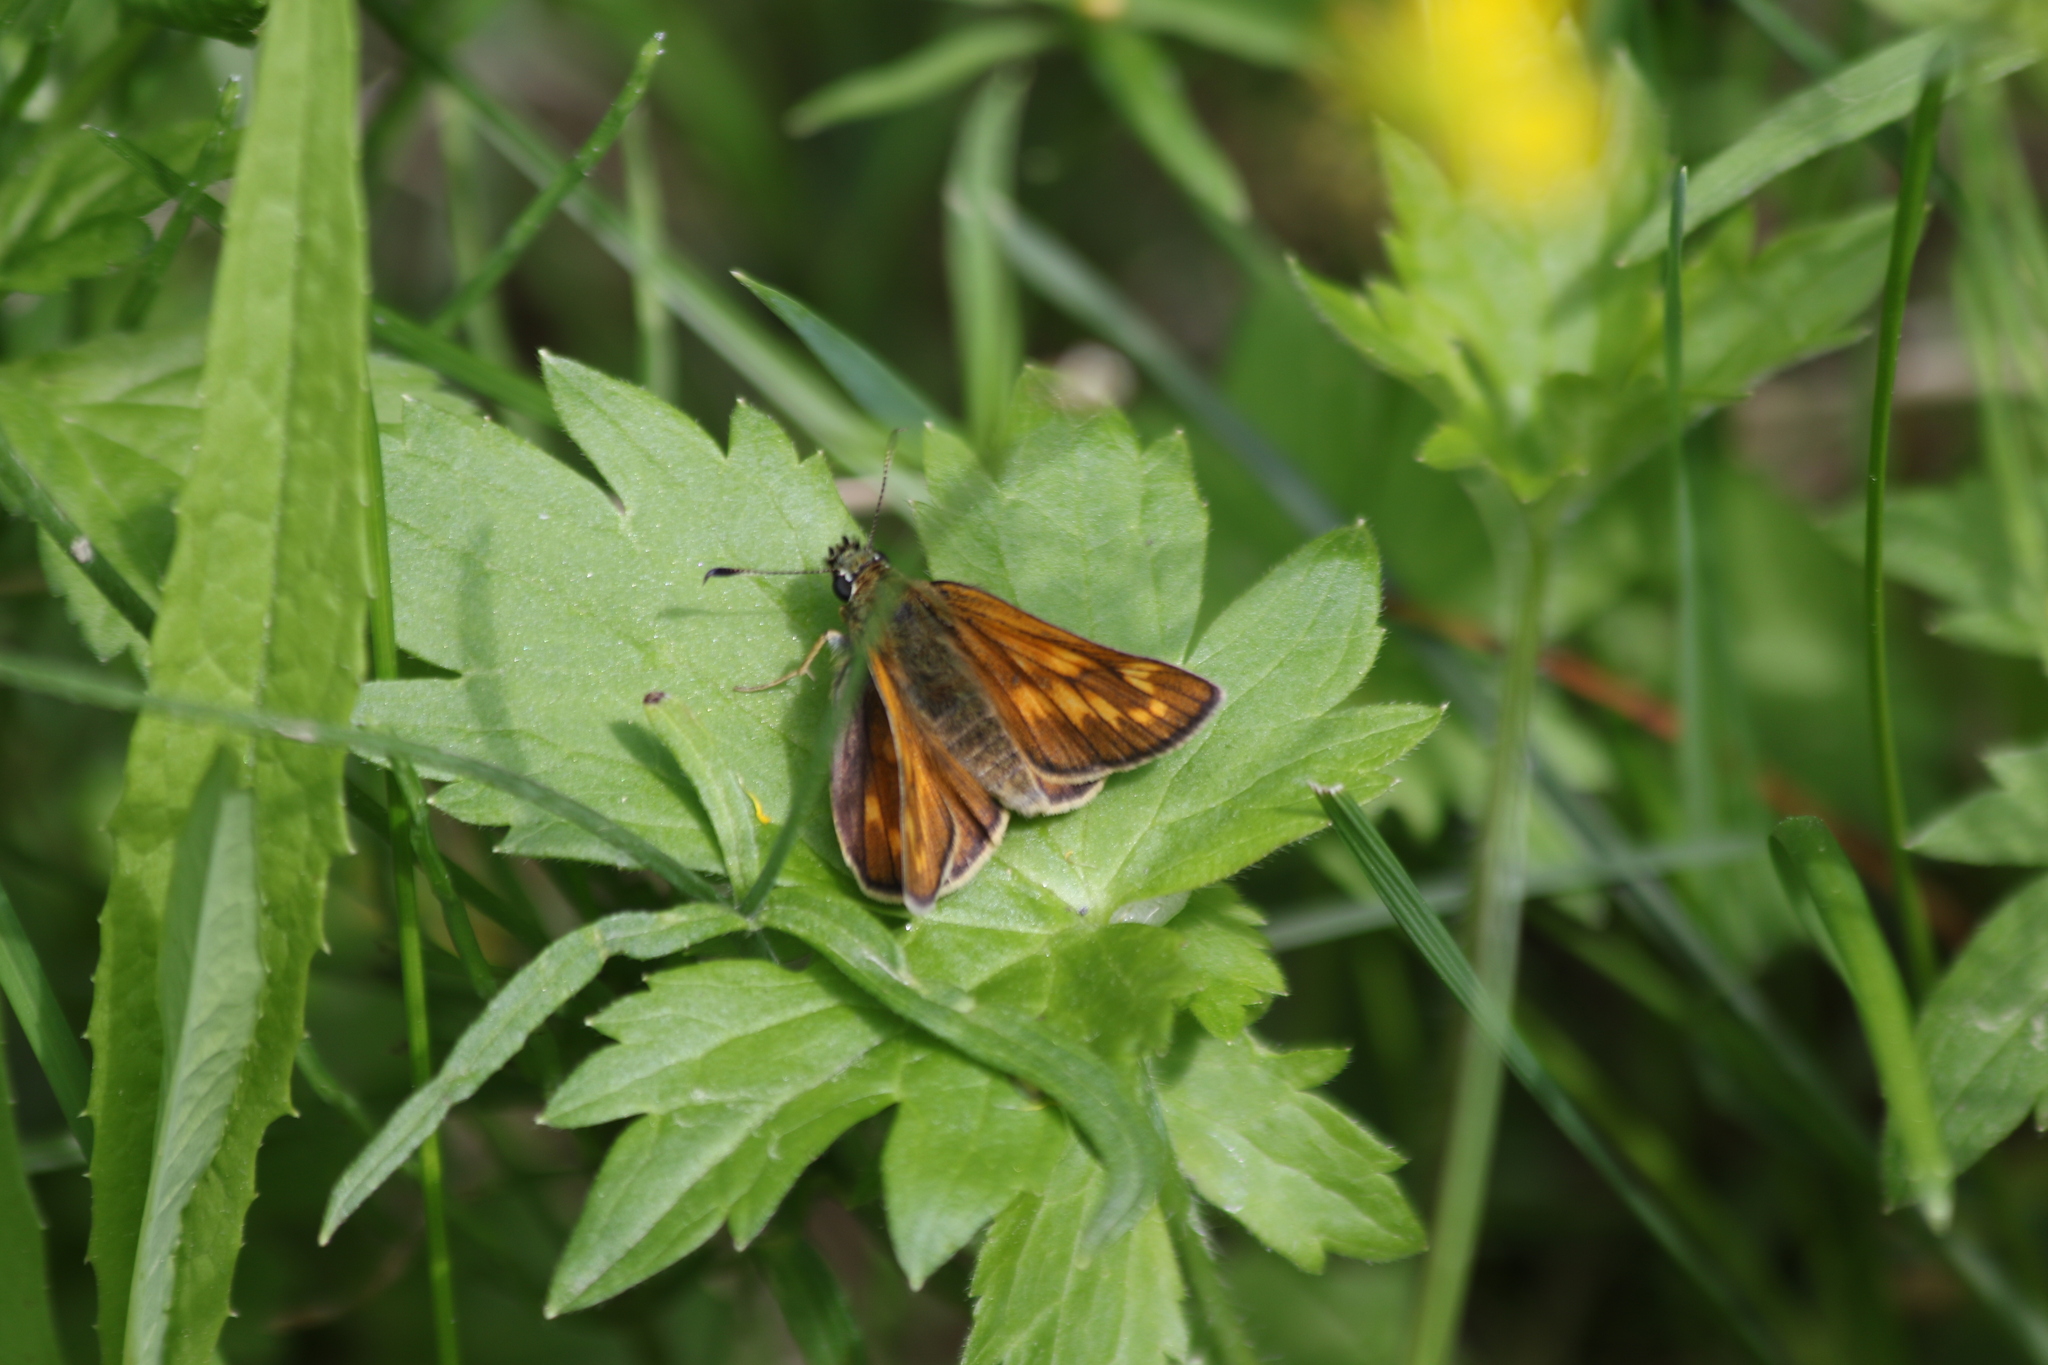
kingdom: Animalia
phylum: Arthropoda
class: Insecta
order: Lepidoptera
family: Hesperiidae
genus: Ochlodes
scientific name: Ochlodes venata
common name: Large skipper
